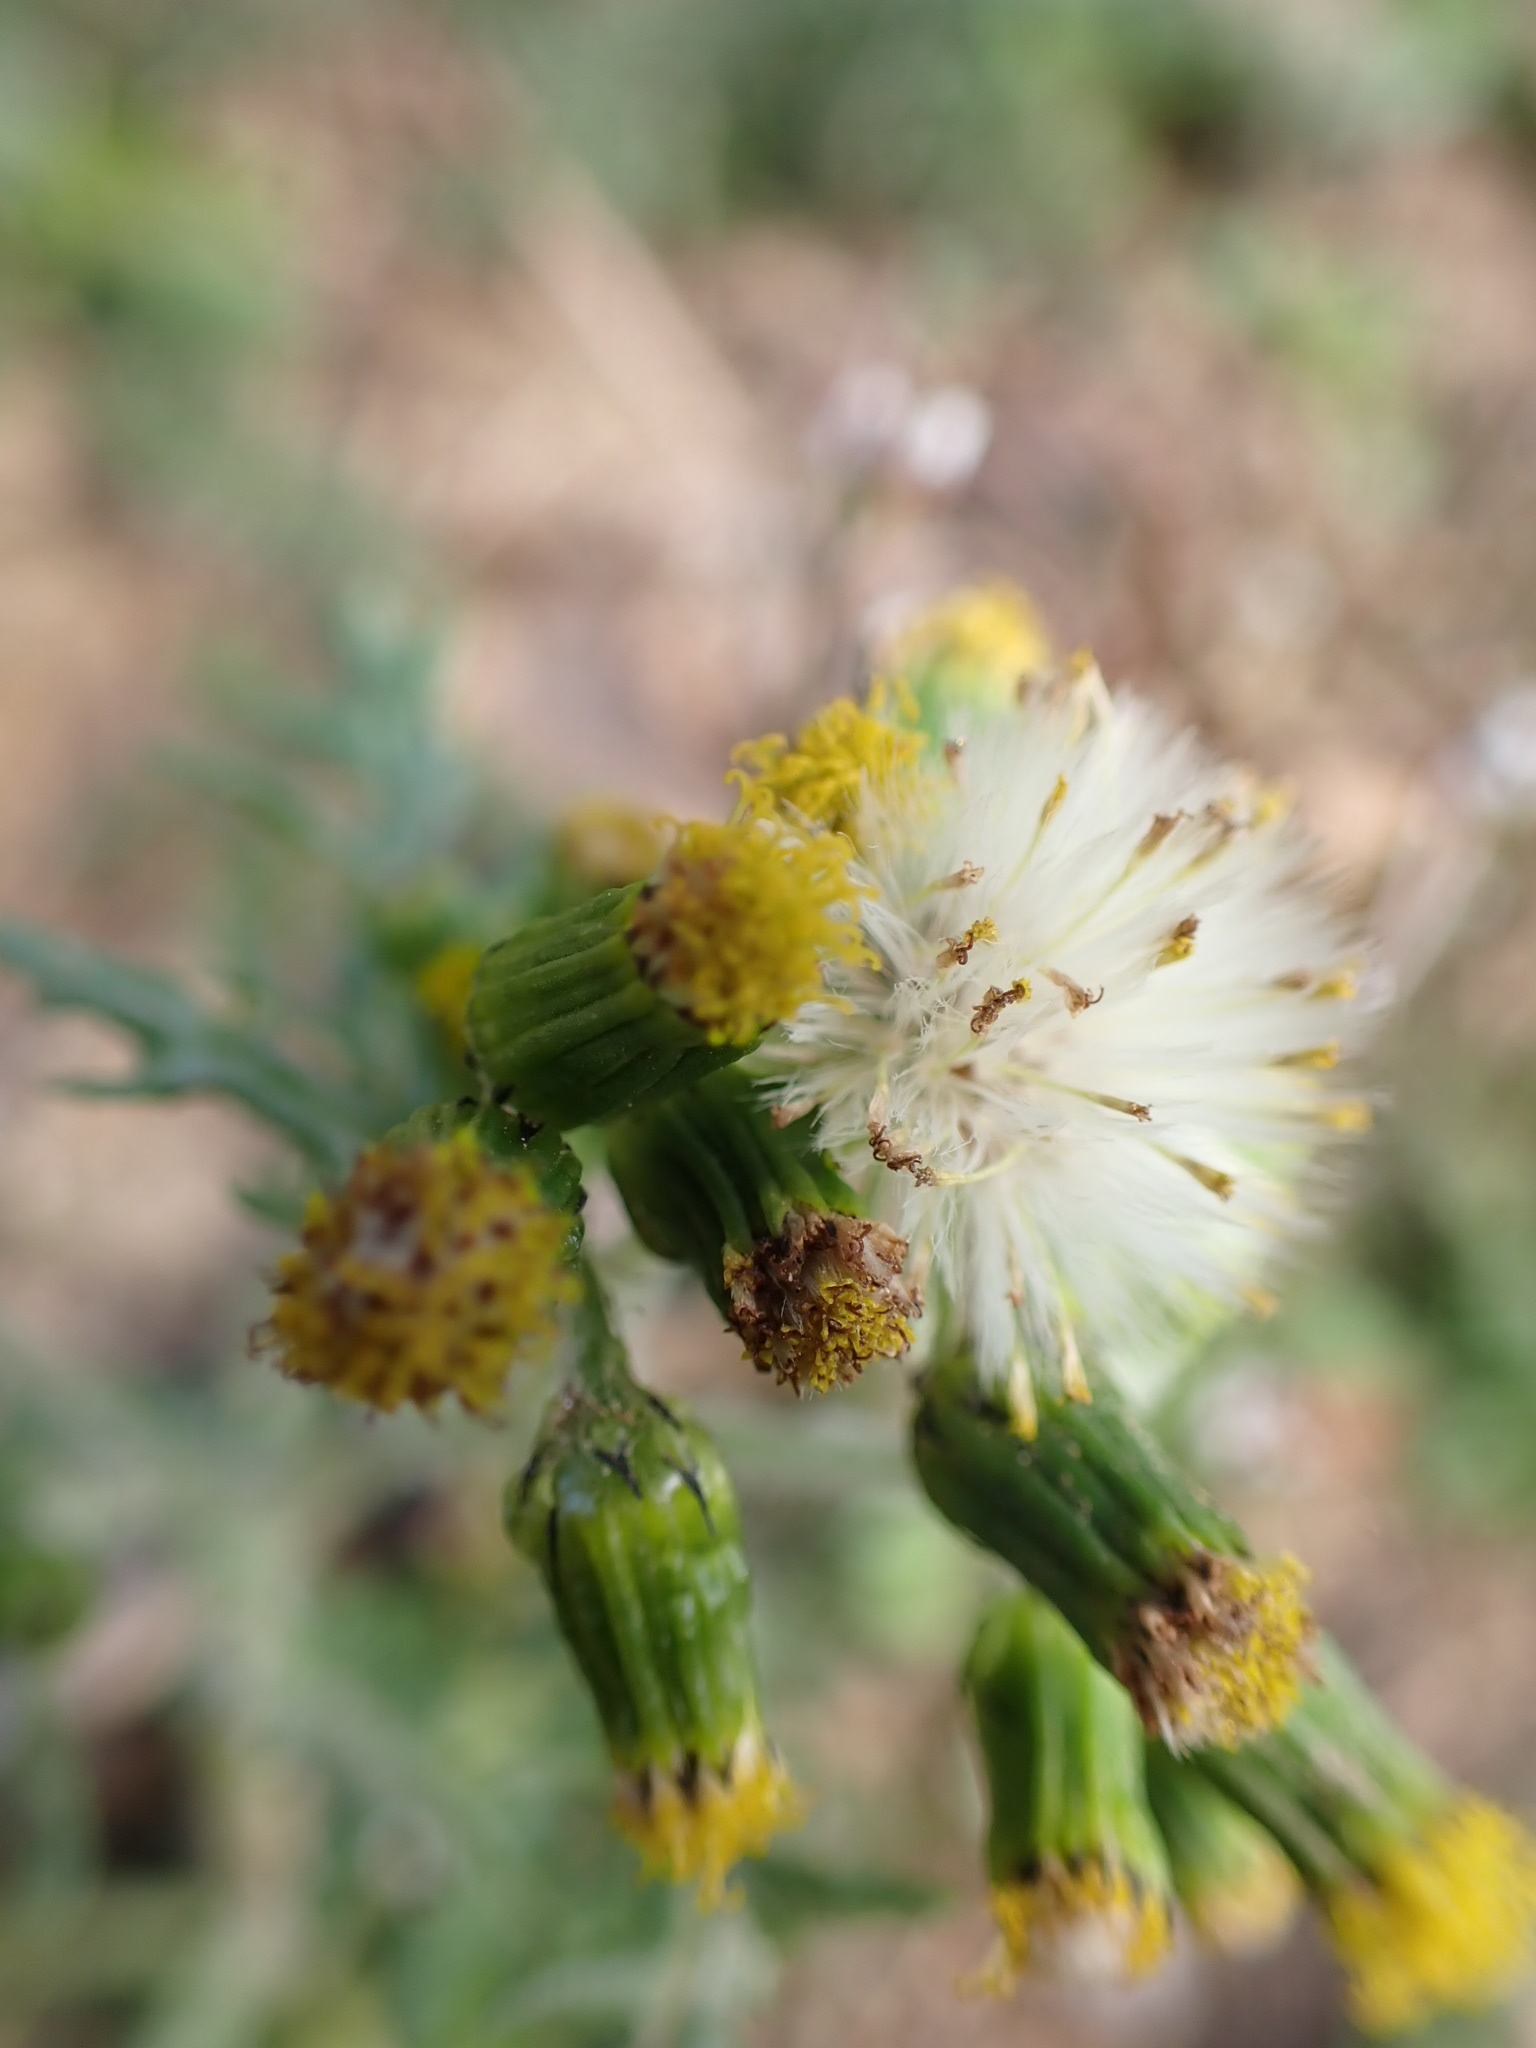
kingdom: Plantae
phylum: Tracheophyta
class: Magnoliopsida
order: Asterales
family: Asteraceae
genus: Senecio
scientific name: Senecio vulgaris
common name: Old-man-in-the-spring
